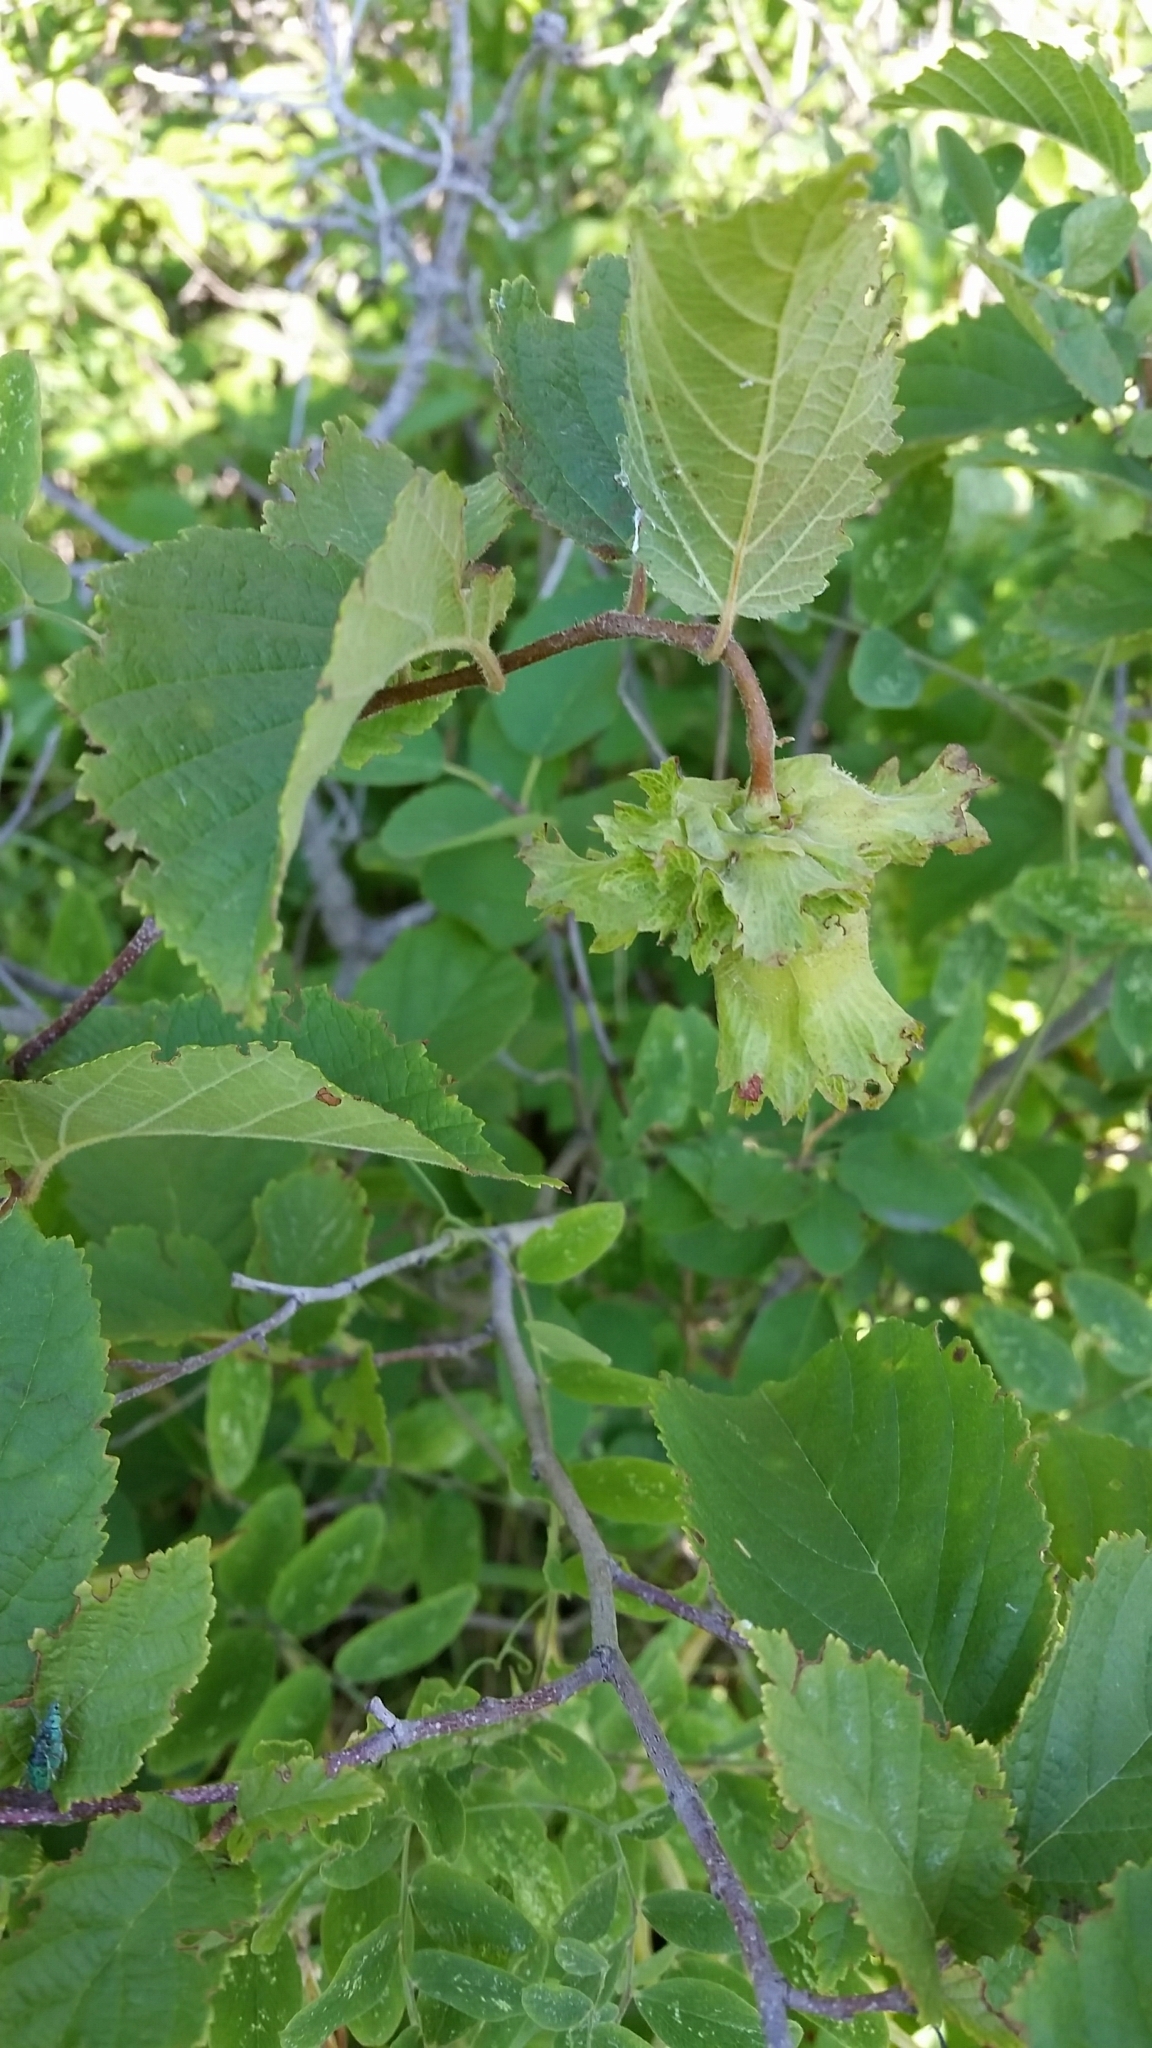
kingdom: Plantae
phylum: Tracheophyta
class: Magnoliopsida
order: Fagales
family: Betulaceae
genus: Corylus
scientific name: Corylus americana
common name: American hazel
